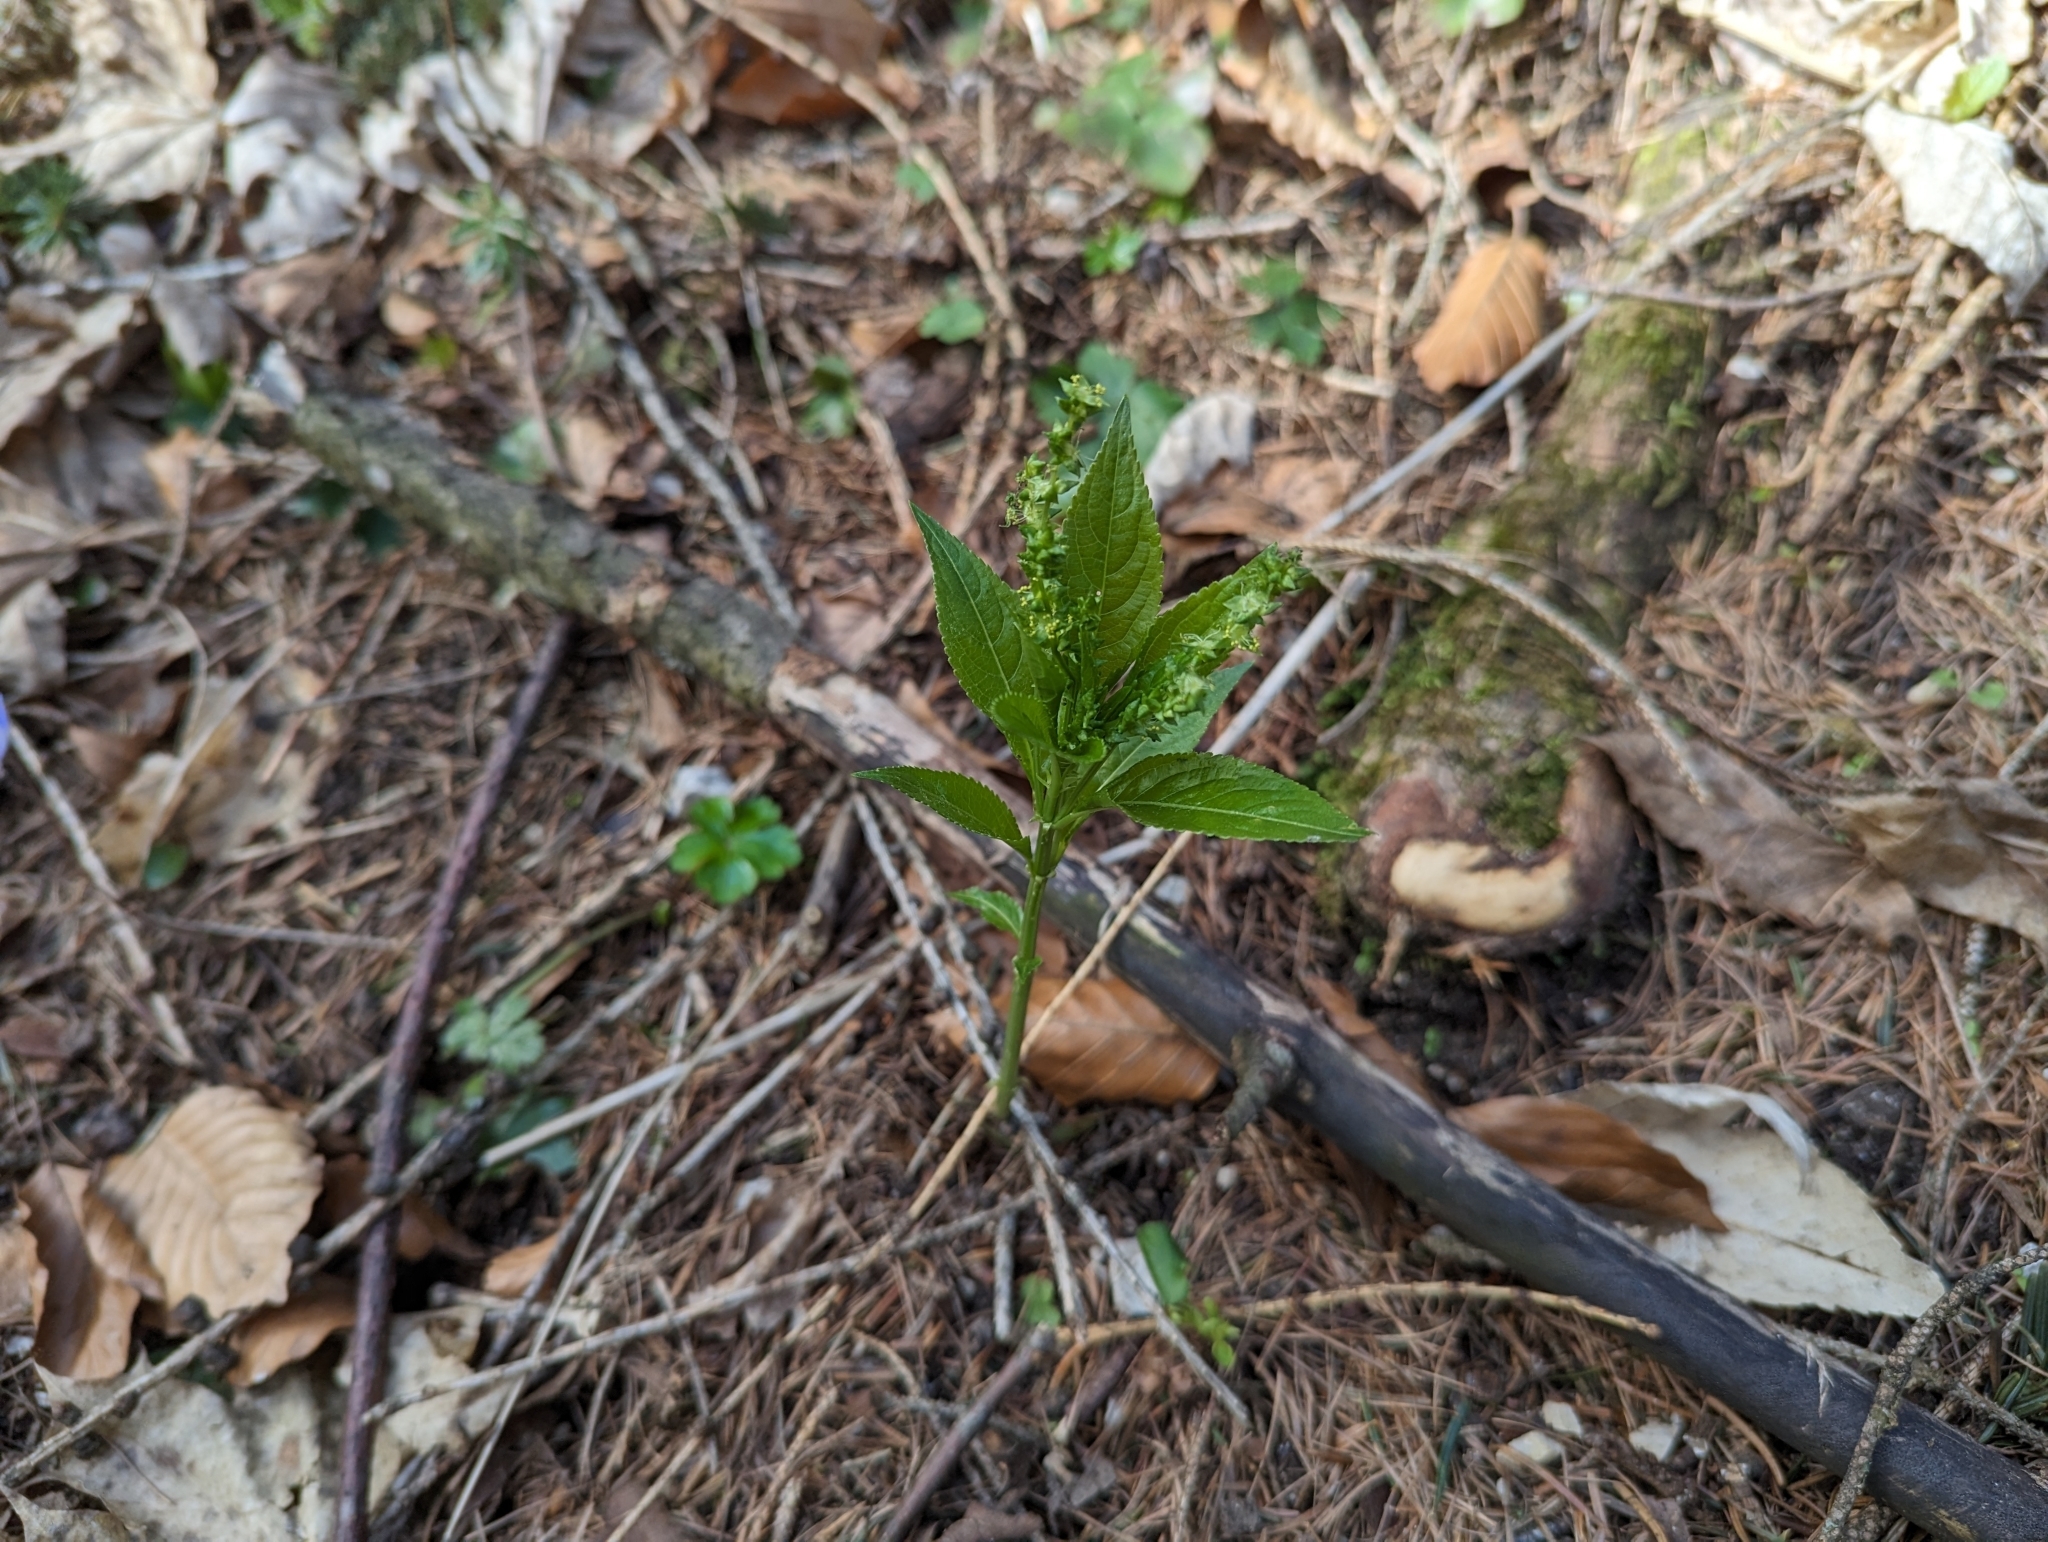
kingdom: Plantae
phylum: Tracheophyta
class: Magnoliopsida
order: Malpighiales
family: Euphorbiaceae
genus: Mercurialis
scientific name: Mercurialis perennis
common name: Dog mercury
